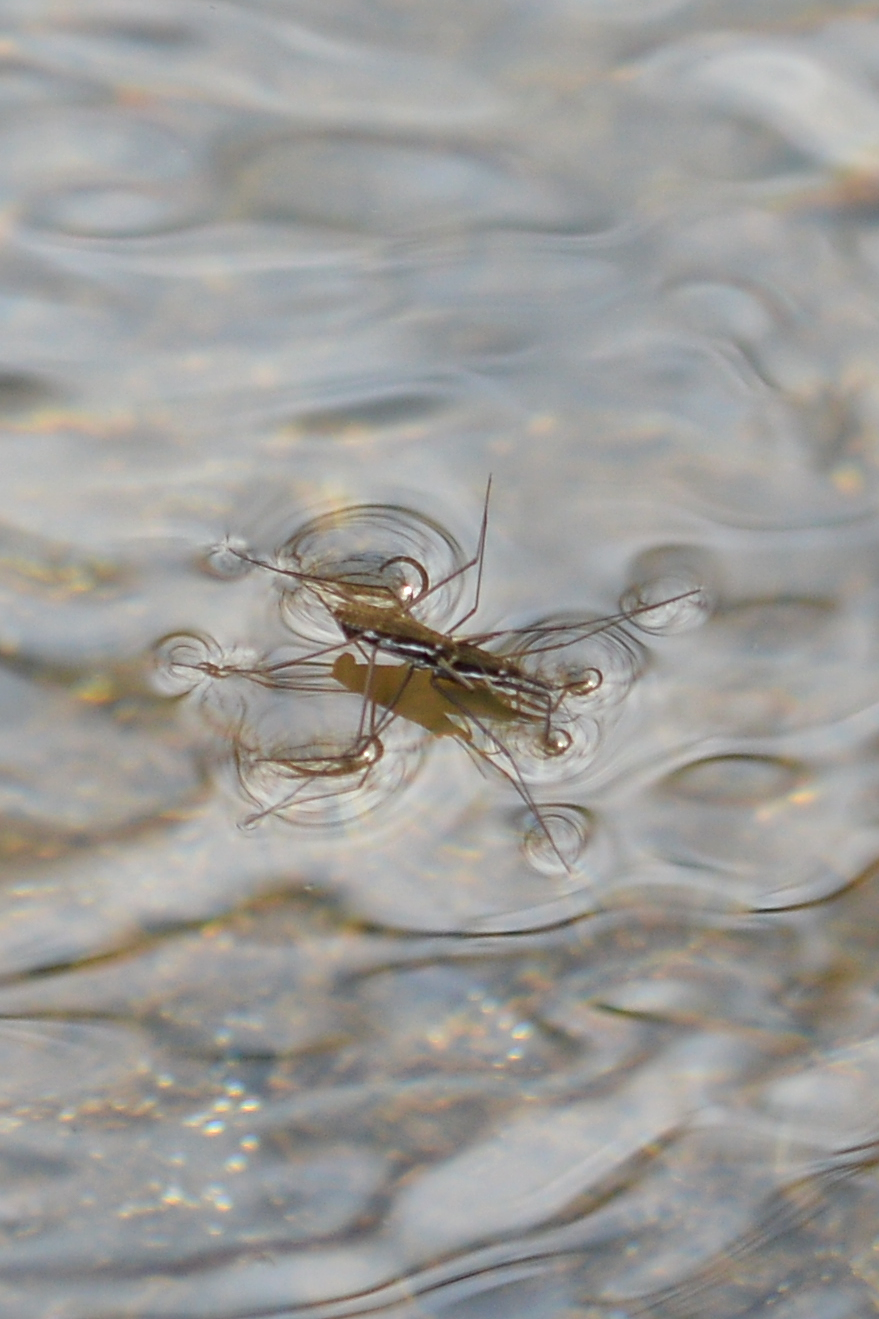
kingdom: Animalia
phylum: Arthropoda
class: Insecta
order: Hemiptera
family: Gerridae
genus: Aquarius
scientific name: Aquarius remigis
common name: Common water strider
